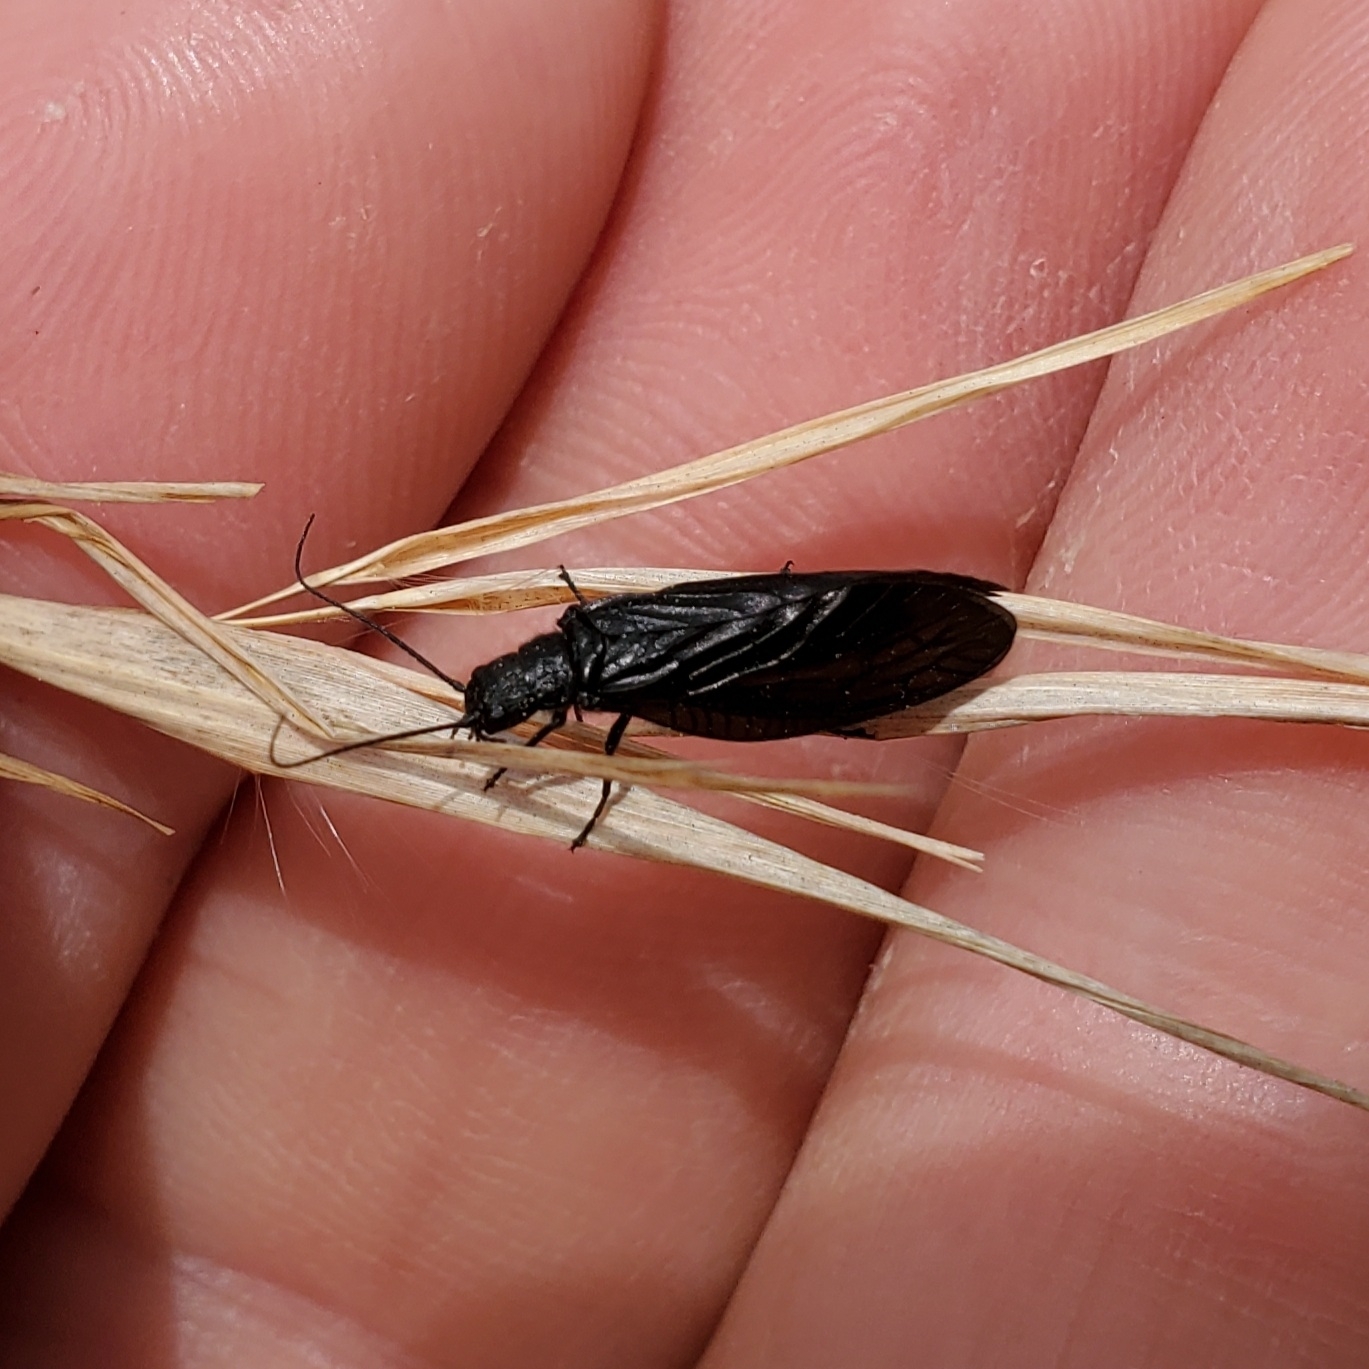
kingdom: Animalia
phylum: Arthropoda
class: Insecta
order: Megaloptera
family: Sialidae
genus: Sialis
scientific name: Sialis
